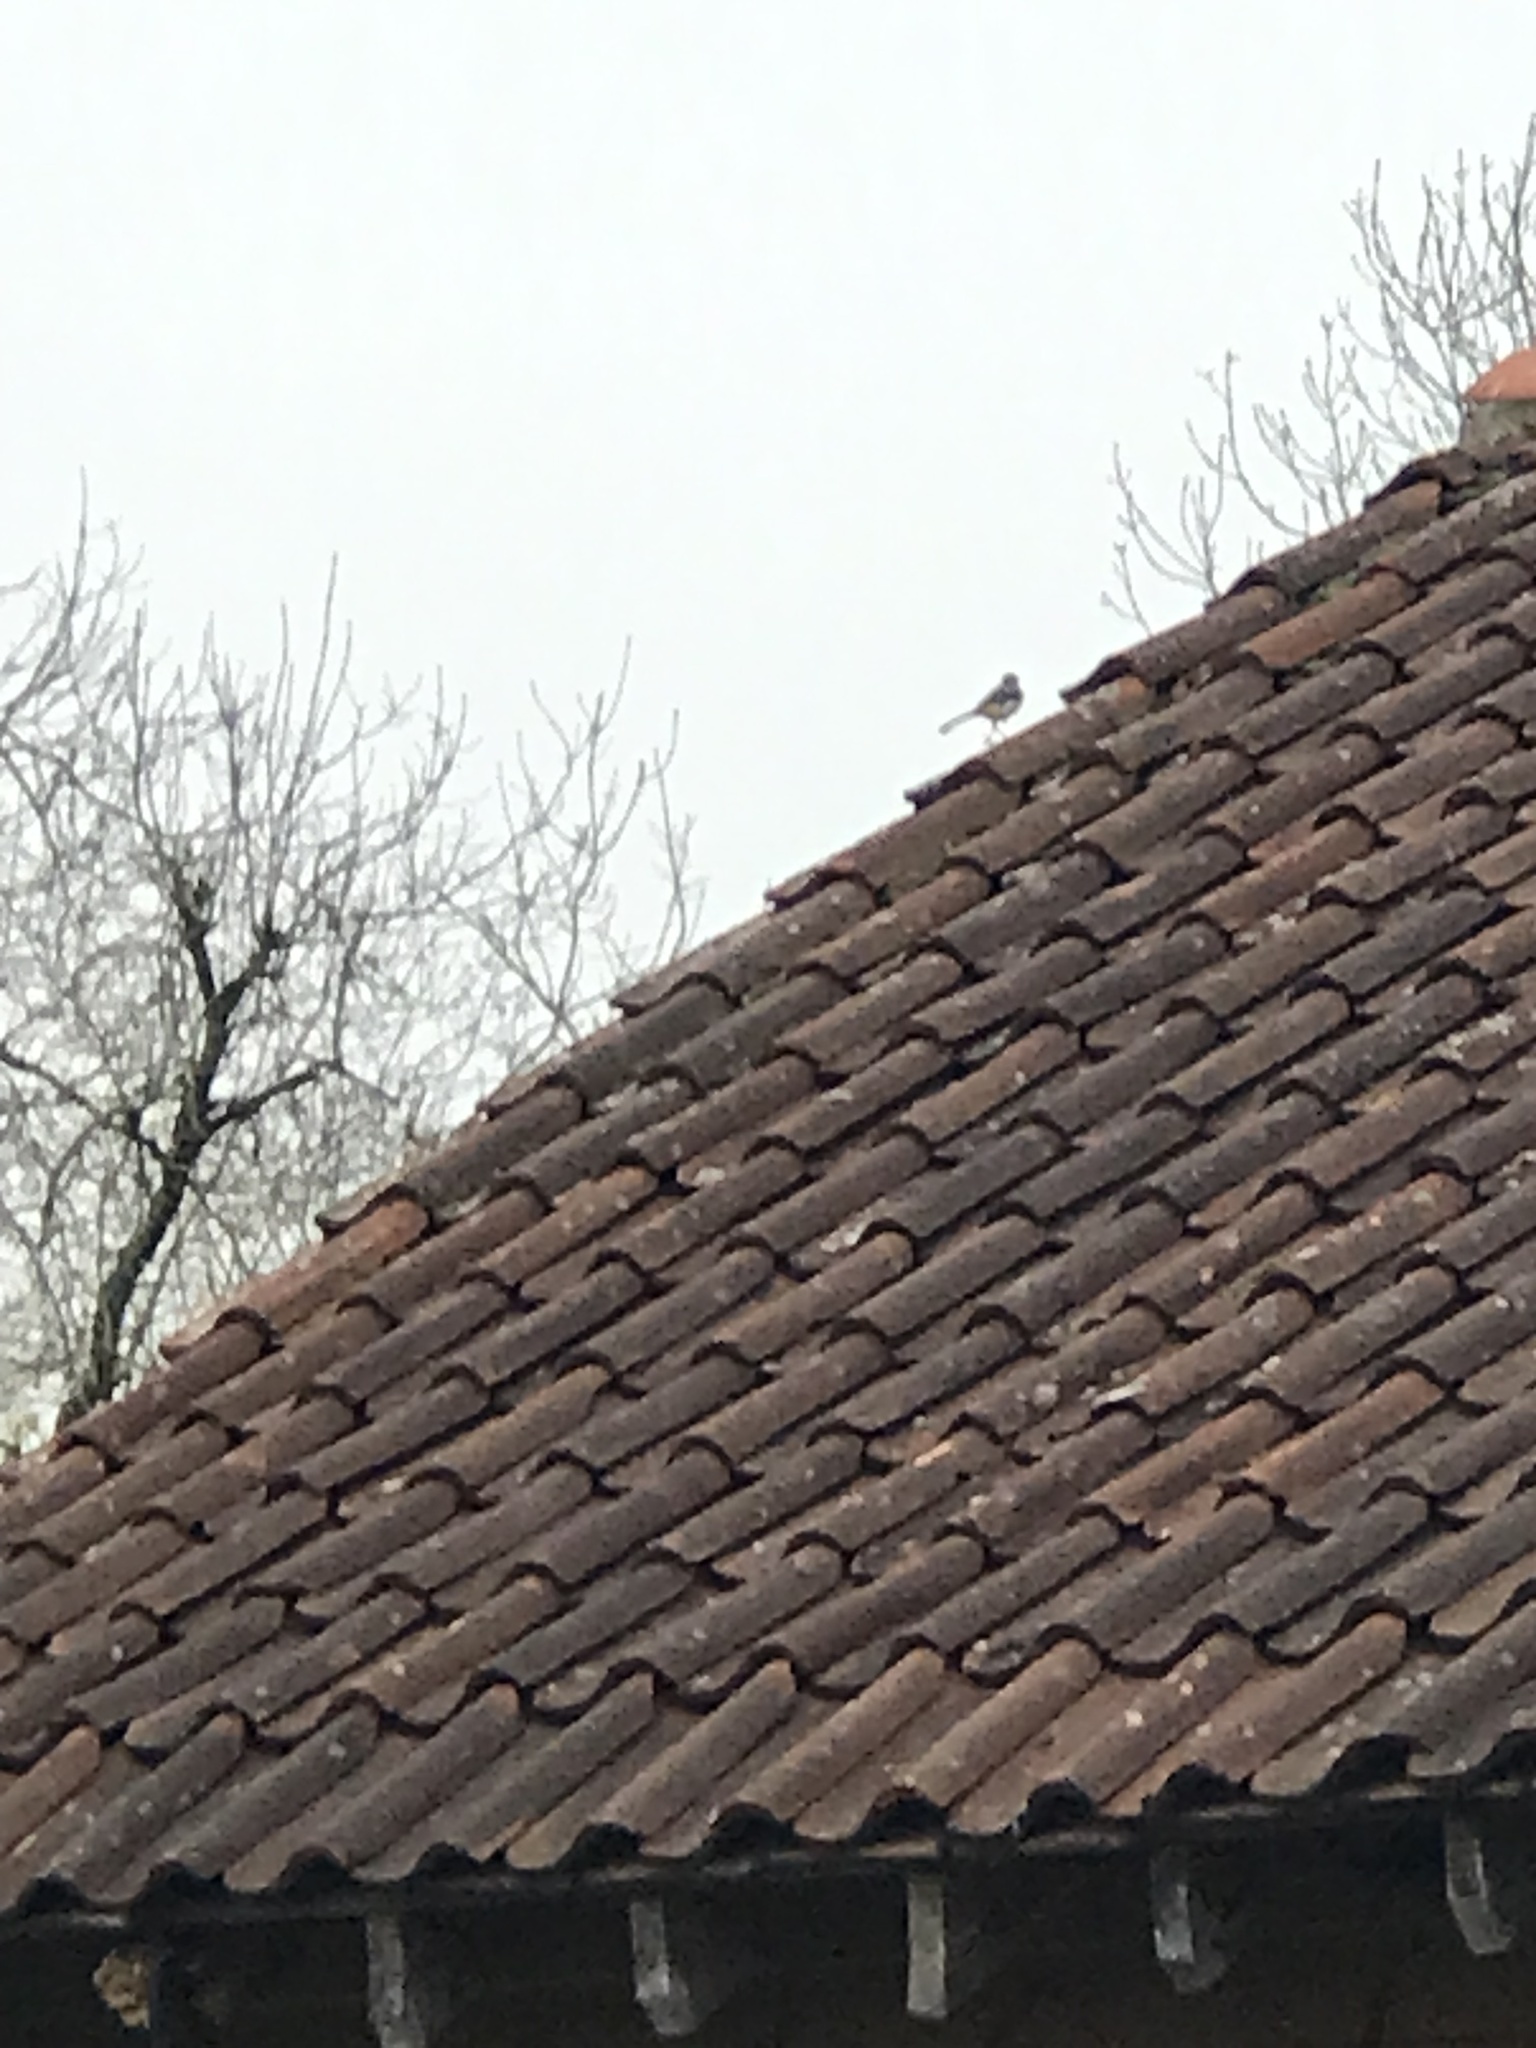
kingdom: Animalia
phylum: Chordata
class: Aves
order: Passeriformes
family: Motacillidae
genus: Motacilla
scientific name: Motacilla cinerea
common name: Grey wagtail
